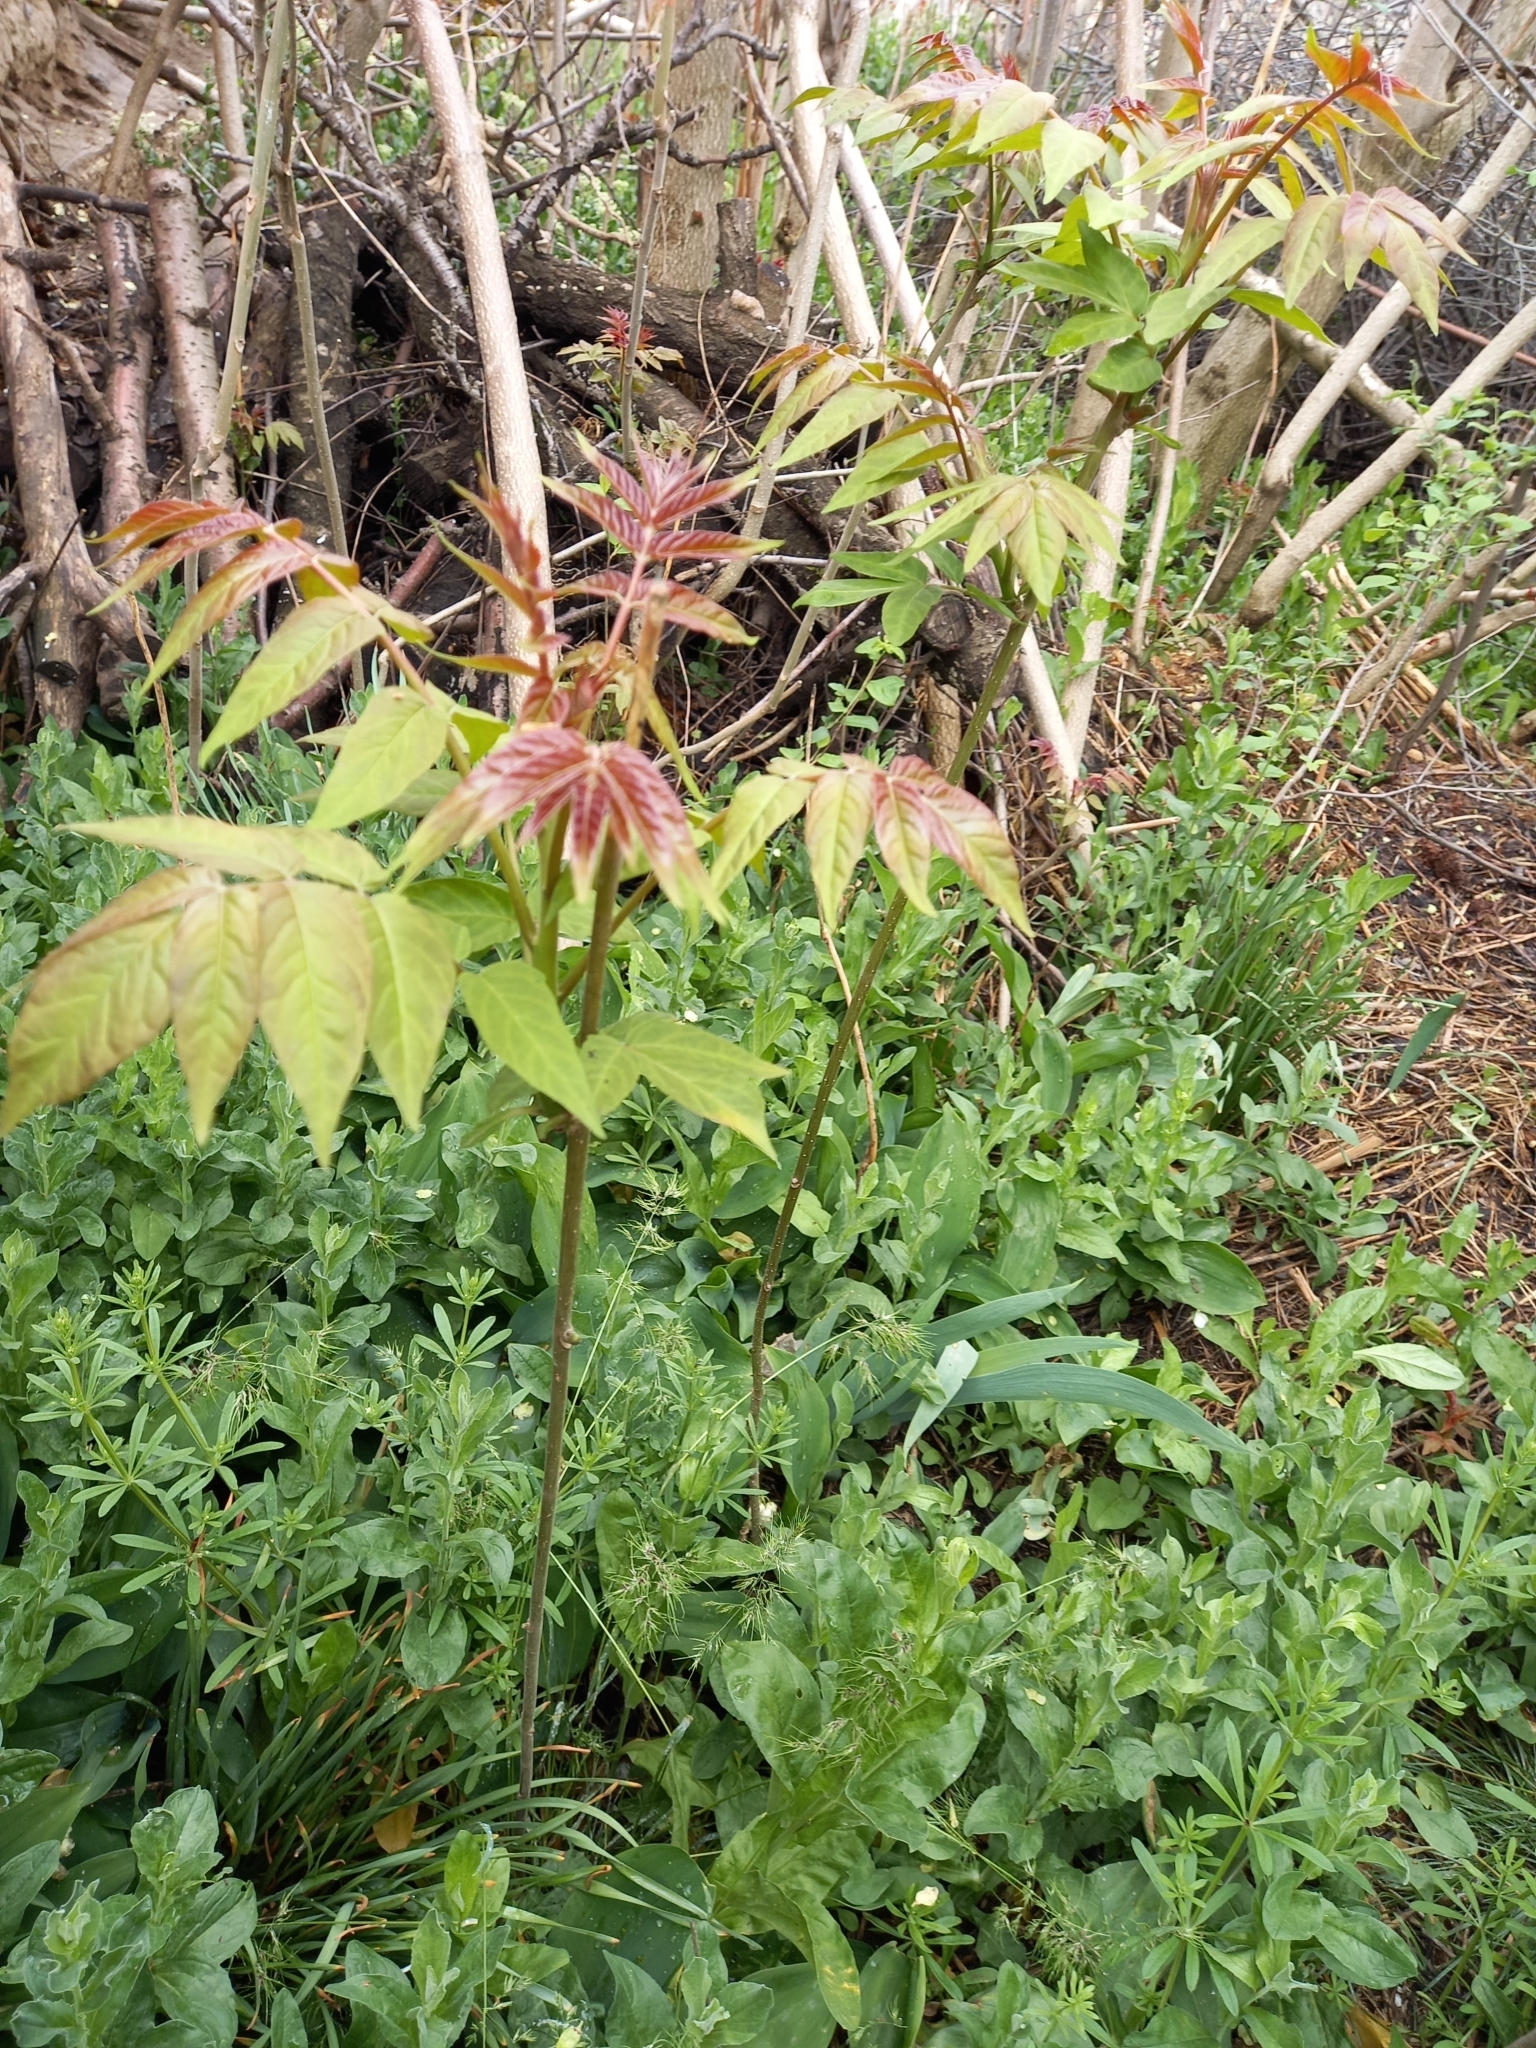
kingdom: Plantae
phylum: Tracheophyta
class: Magnoliopsida
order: Sapindales
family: Simaroubaceae
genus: Ailanthus
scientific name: Ailanthus altissima
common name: Tree-of-heaven
